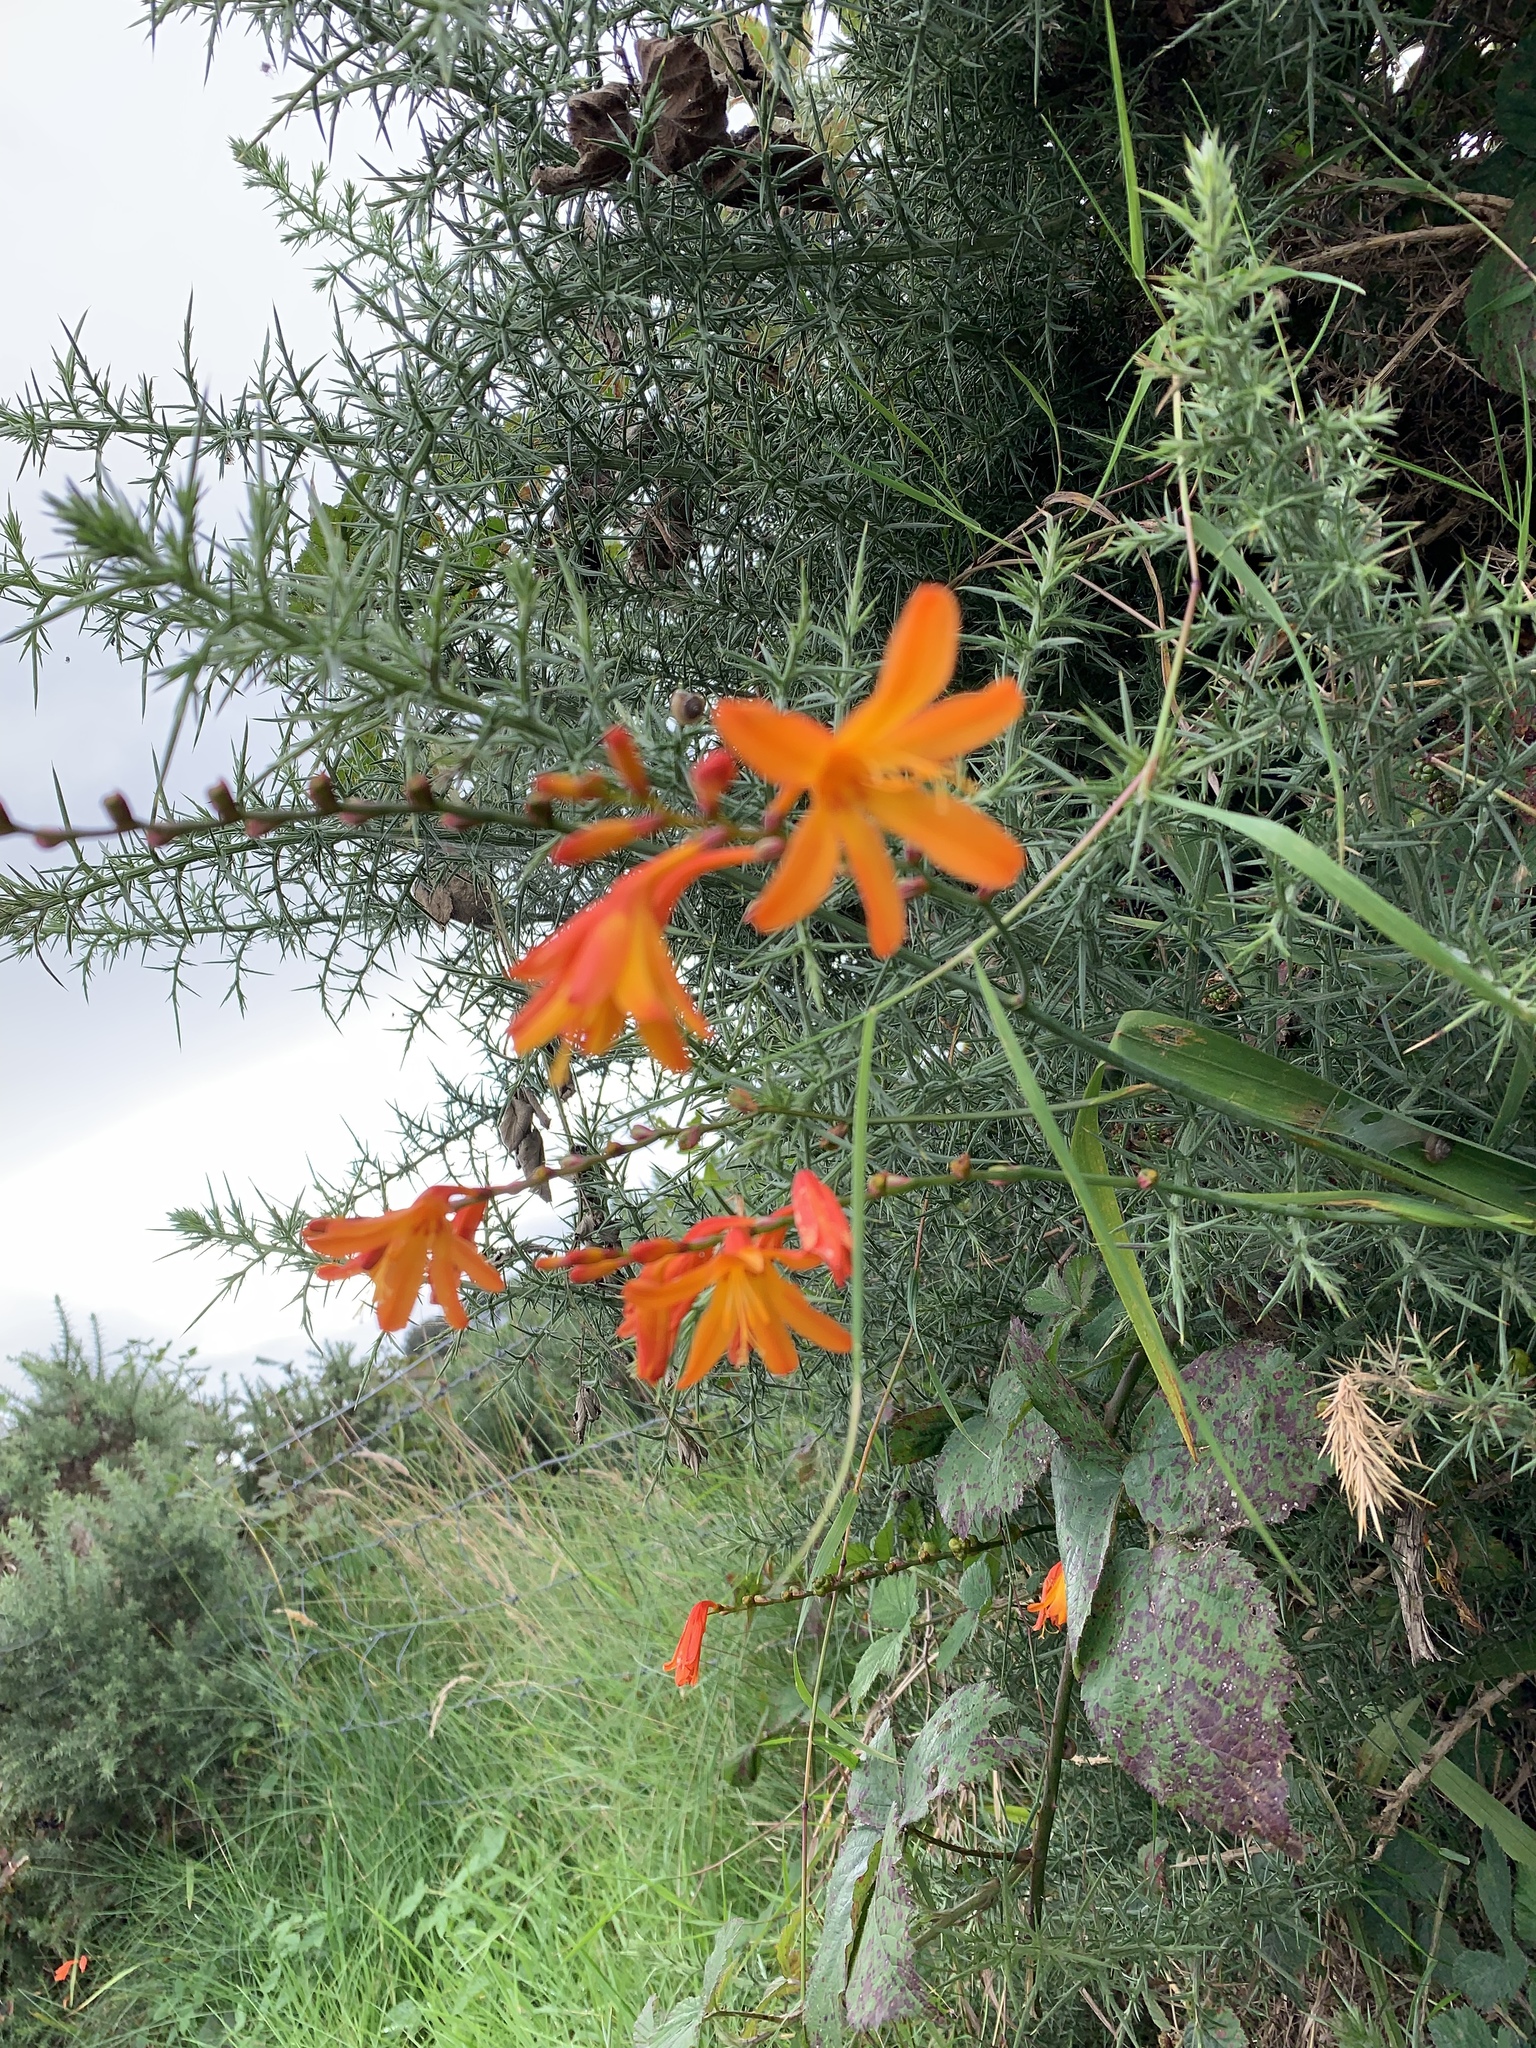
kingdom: Plantae
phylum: Tracheophyta
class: Liliopsida
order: Asparagales
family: Iridaceae
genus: Crocosmia
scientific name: Crocosmia crocosmiiflora
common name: Montbretia
